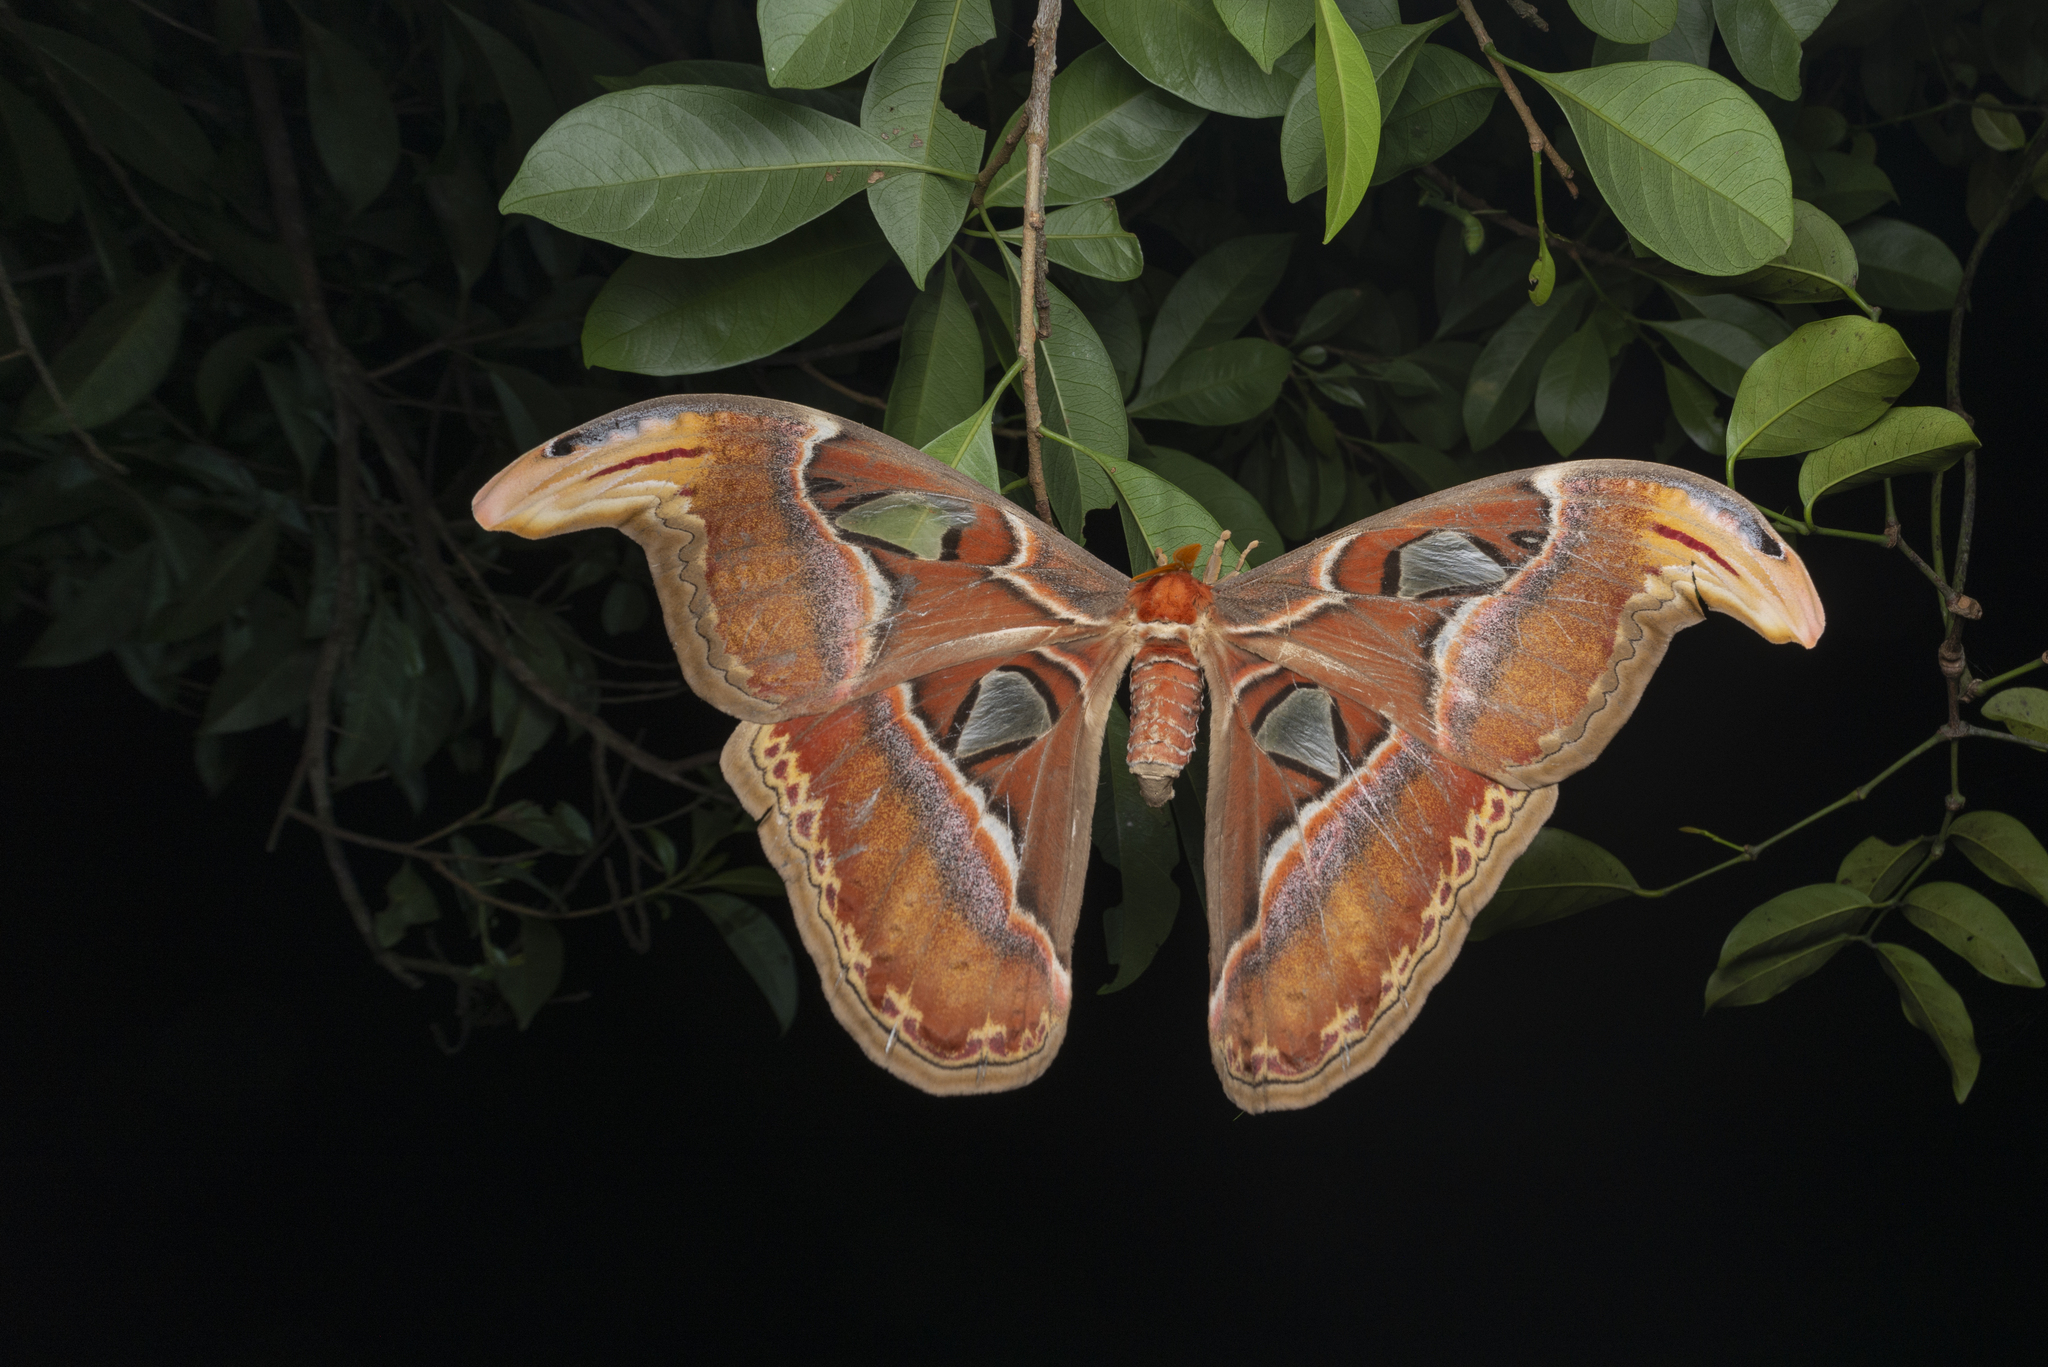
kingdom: Animalia
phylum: Arthropoda
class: Insecta
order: Lepidoptera
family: Saturniidae
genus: Attacus
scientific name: Attacus atlas
